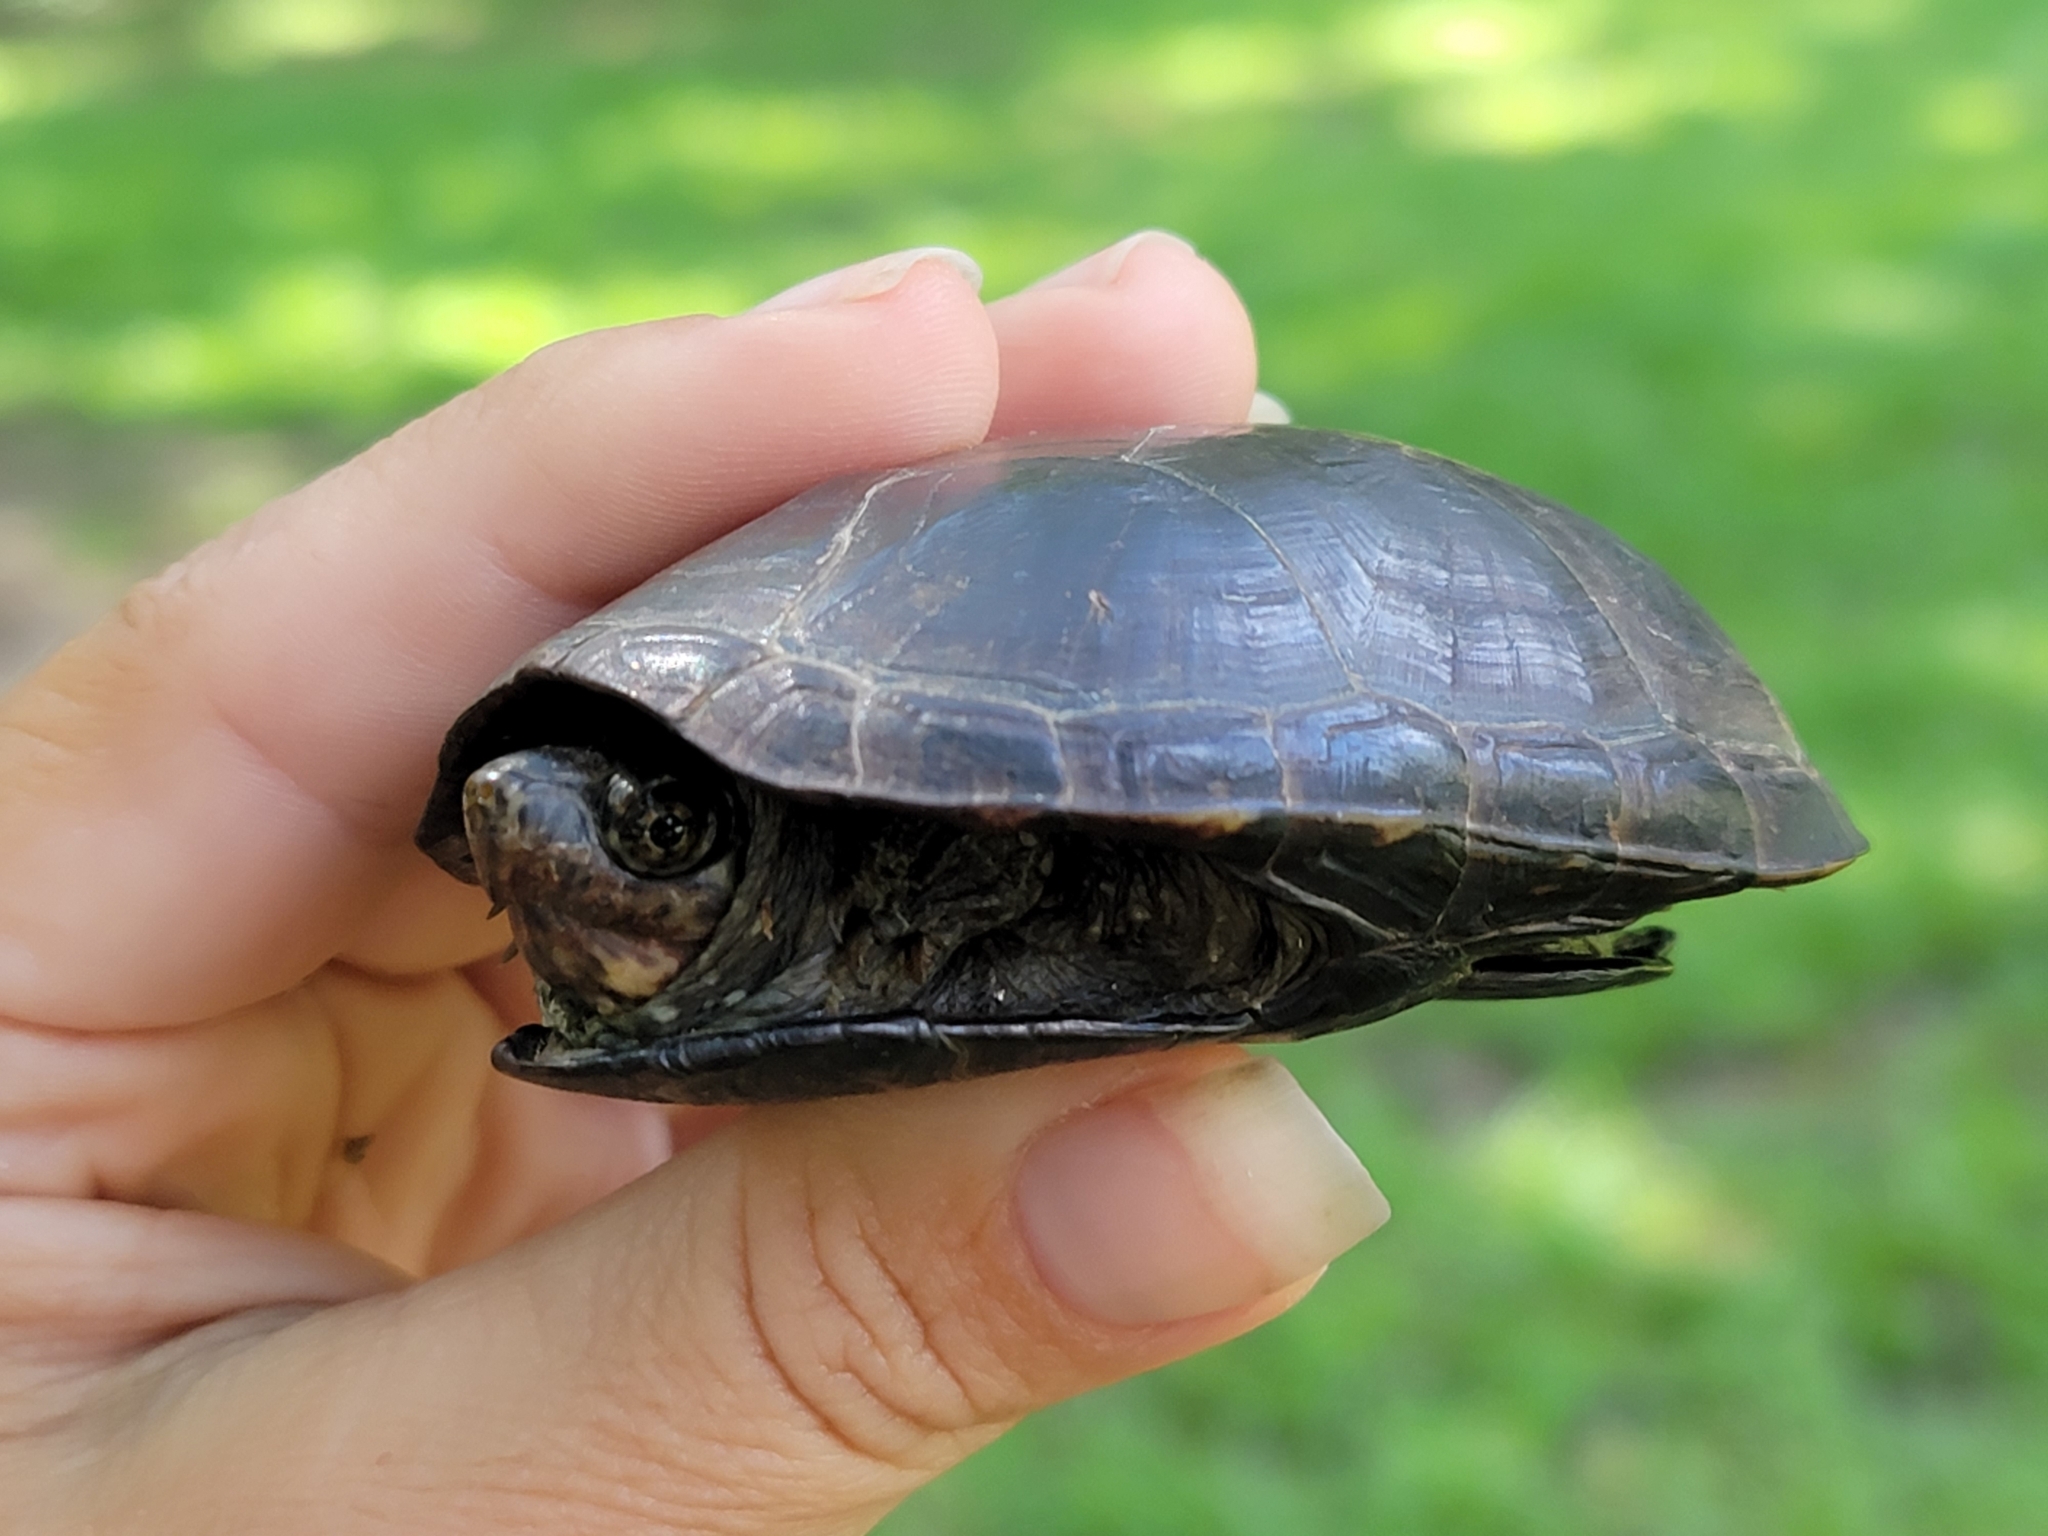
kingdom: Animalia
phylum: Chordata
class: Testudines
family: Kinosternidae
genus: Kinosternon
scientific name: Kinosternon subrubrum
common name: Eastern mud turtle
